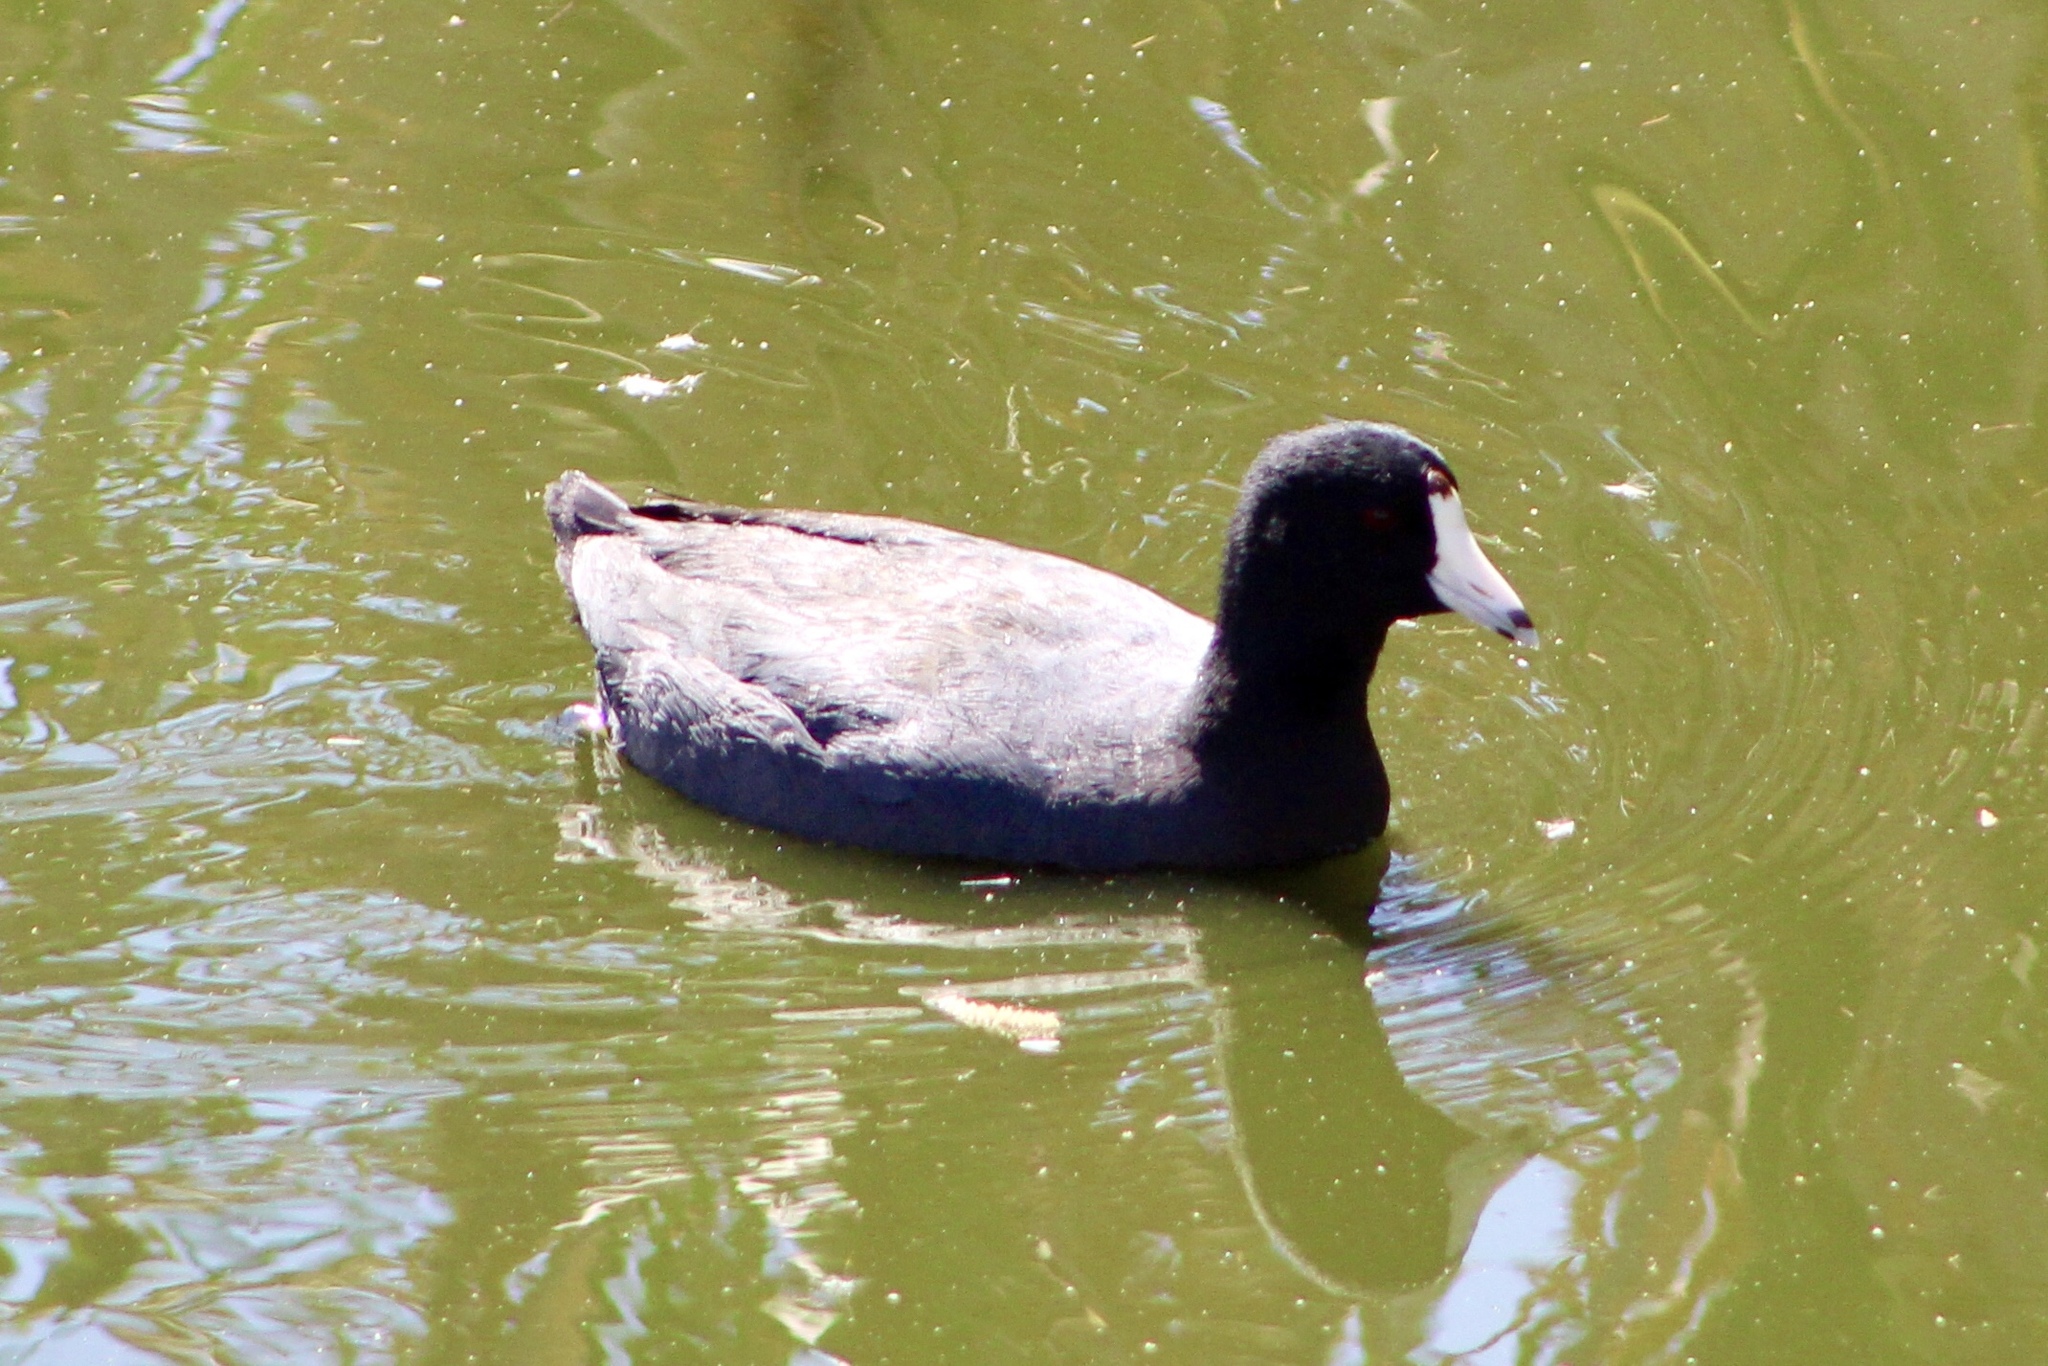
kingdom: Animalia
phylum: Chordata
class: Aves
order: Gruiformes
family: Rallidae
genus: Fulica
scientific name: Fulica americana
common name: American coot
